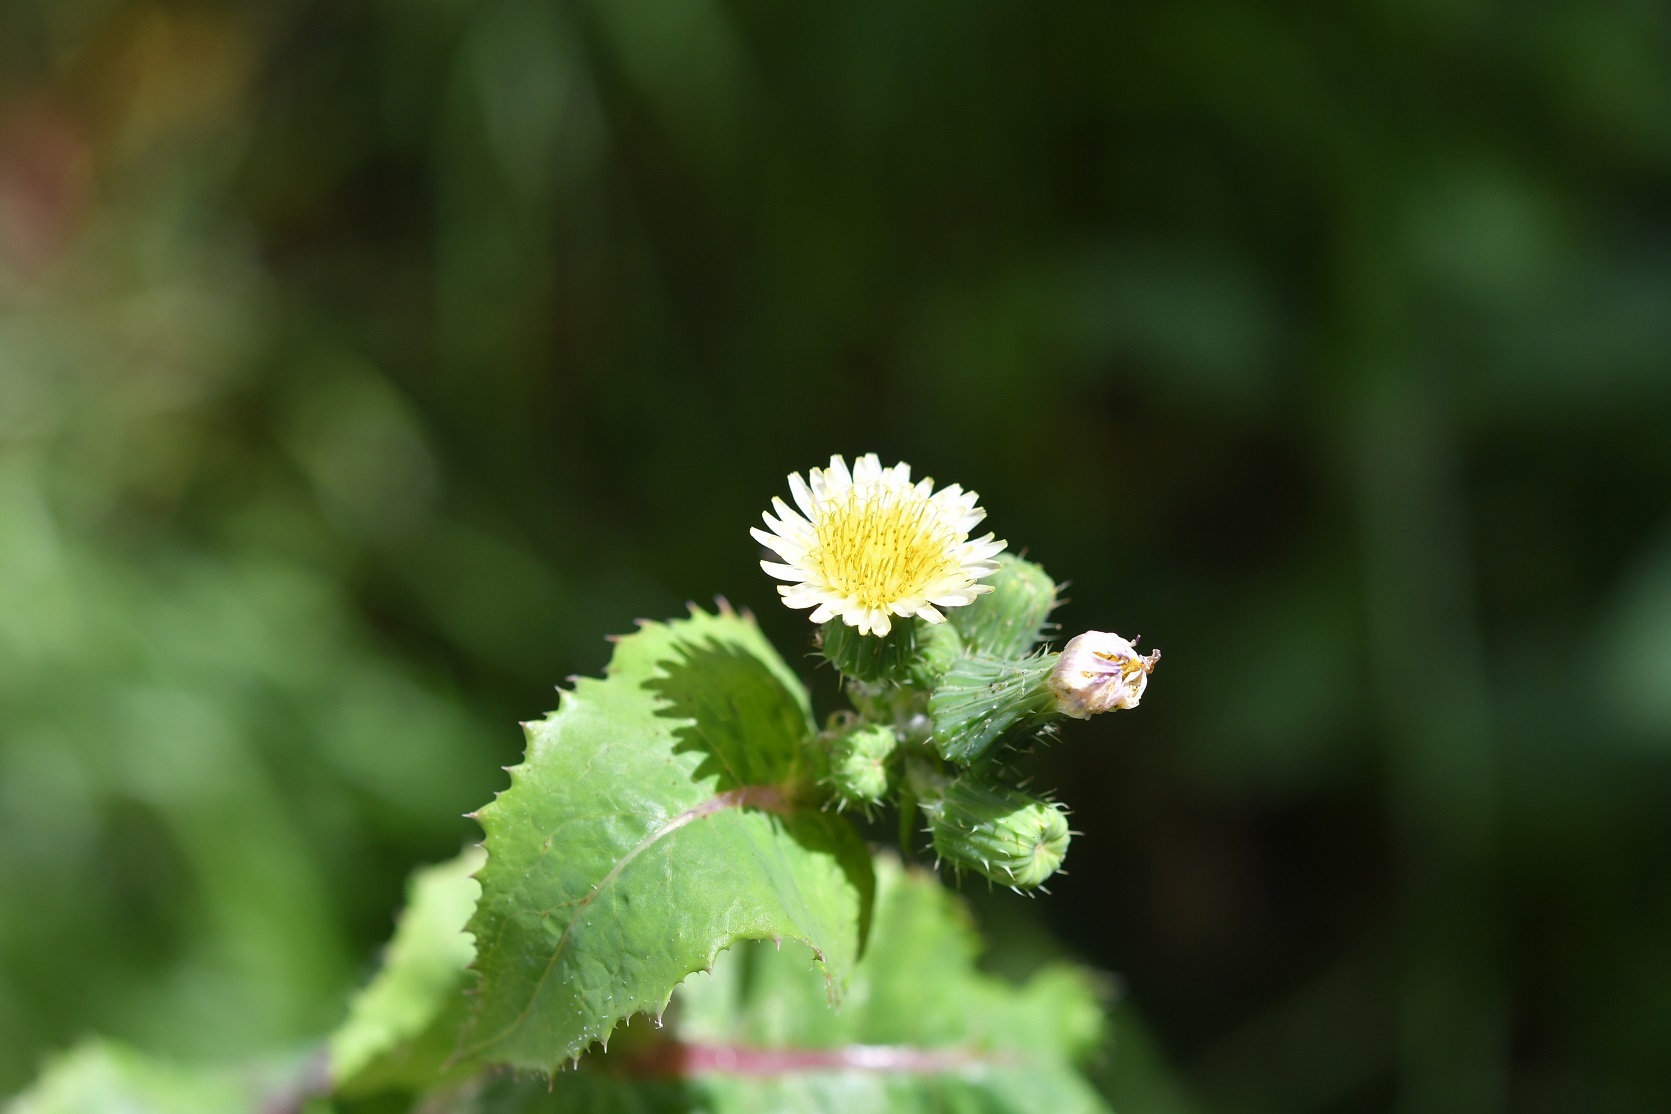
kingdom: Plantae
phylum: Tracheophyta
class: Magnoliopsida
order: Asterales
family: Asteraceae
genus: Sonchus
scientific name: Sonchus oleraceus
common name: Common sowthistle
